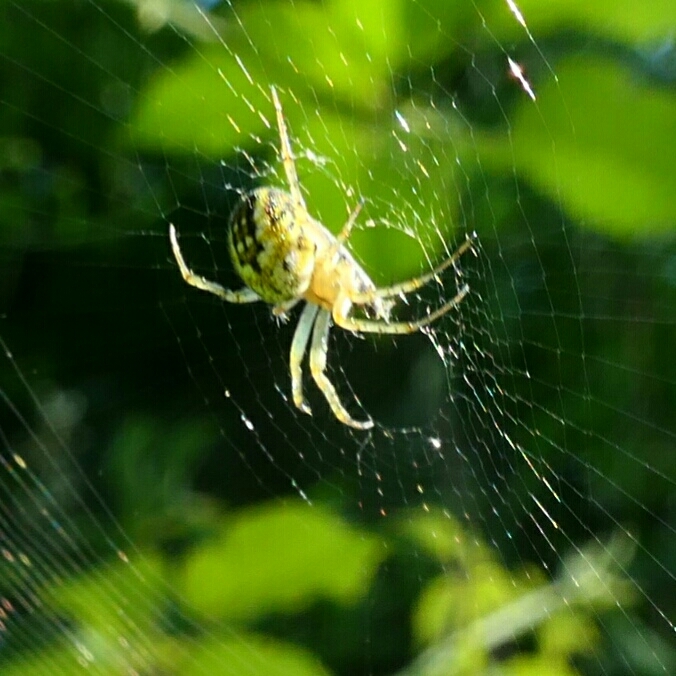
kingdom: Animalia
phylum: Arthropoda
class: Arachnida
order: Araneae
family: Araneidae
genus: Mangora
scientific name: Mangora acalypha
